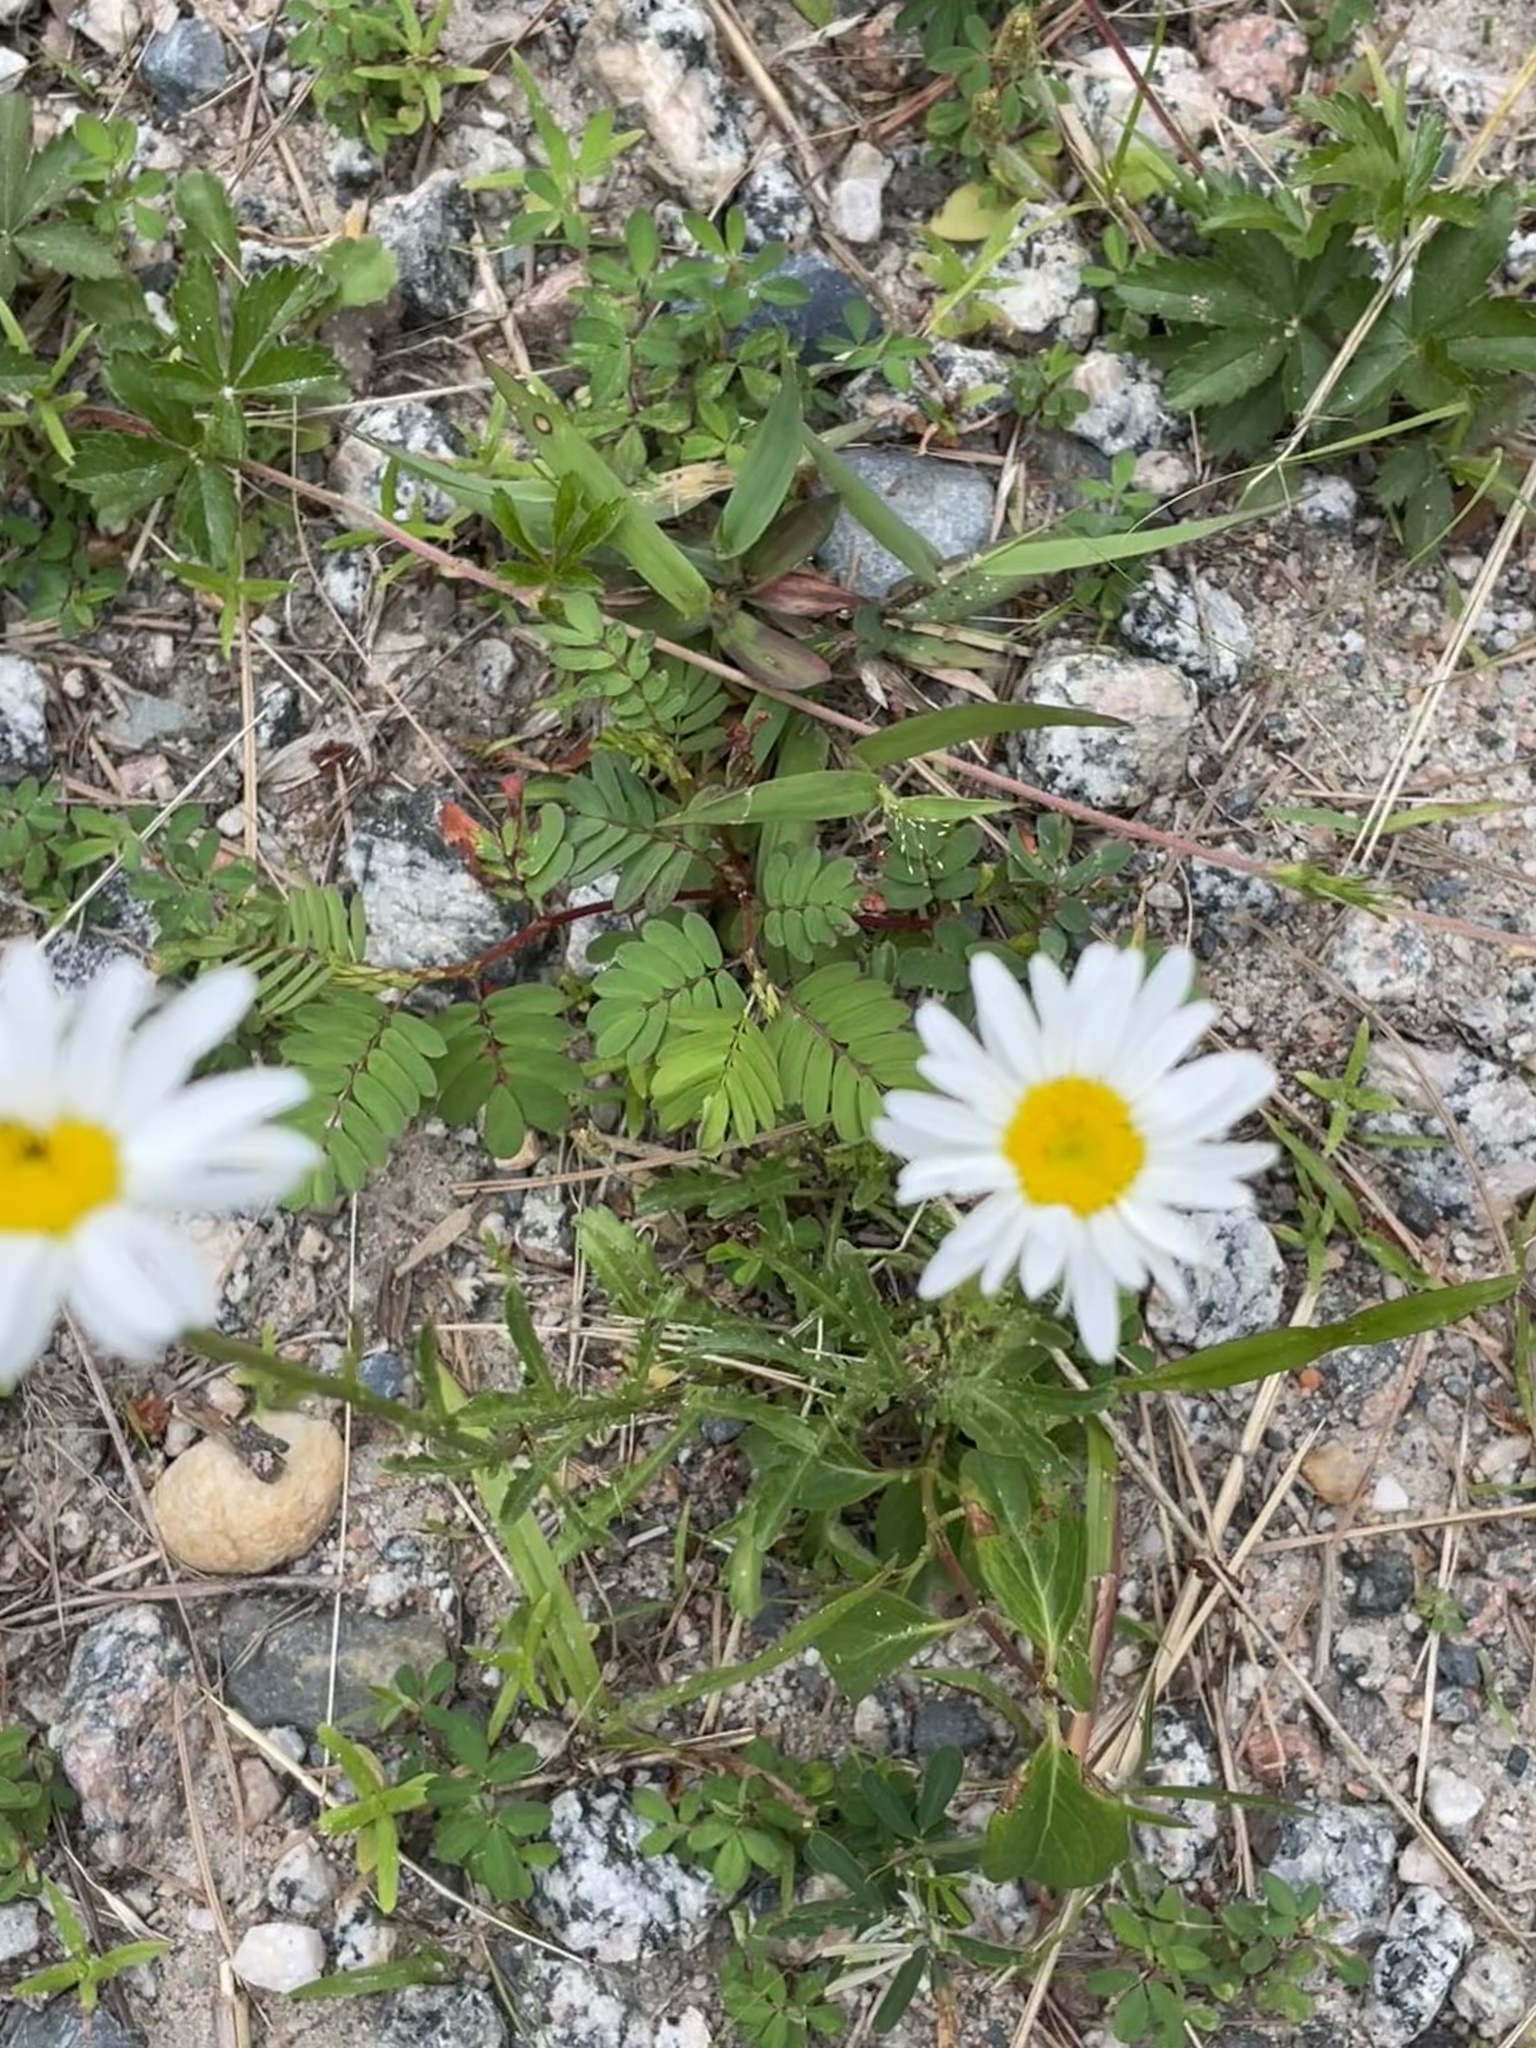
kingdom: Plantae
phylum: Tracheophyta
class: Magnoliopsida
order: Asterales
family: Asteraceae
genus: Leucanthemum
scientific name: Leucanthemum vulgare
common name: Oxeye daisy
